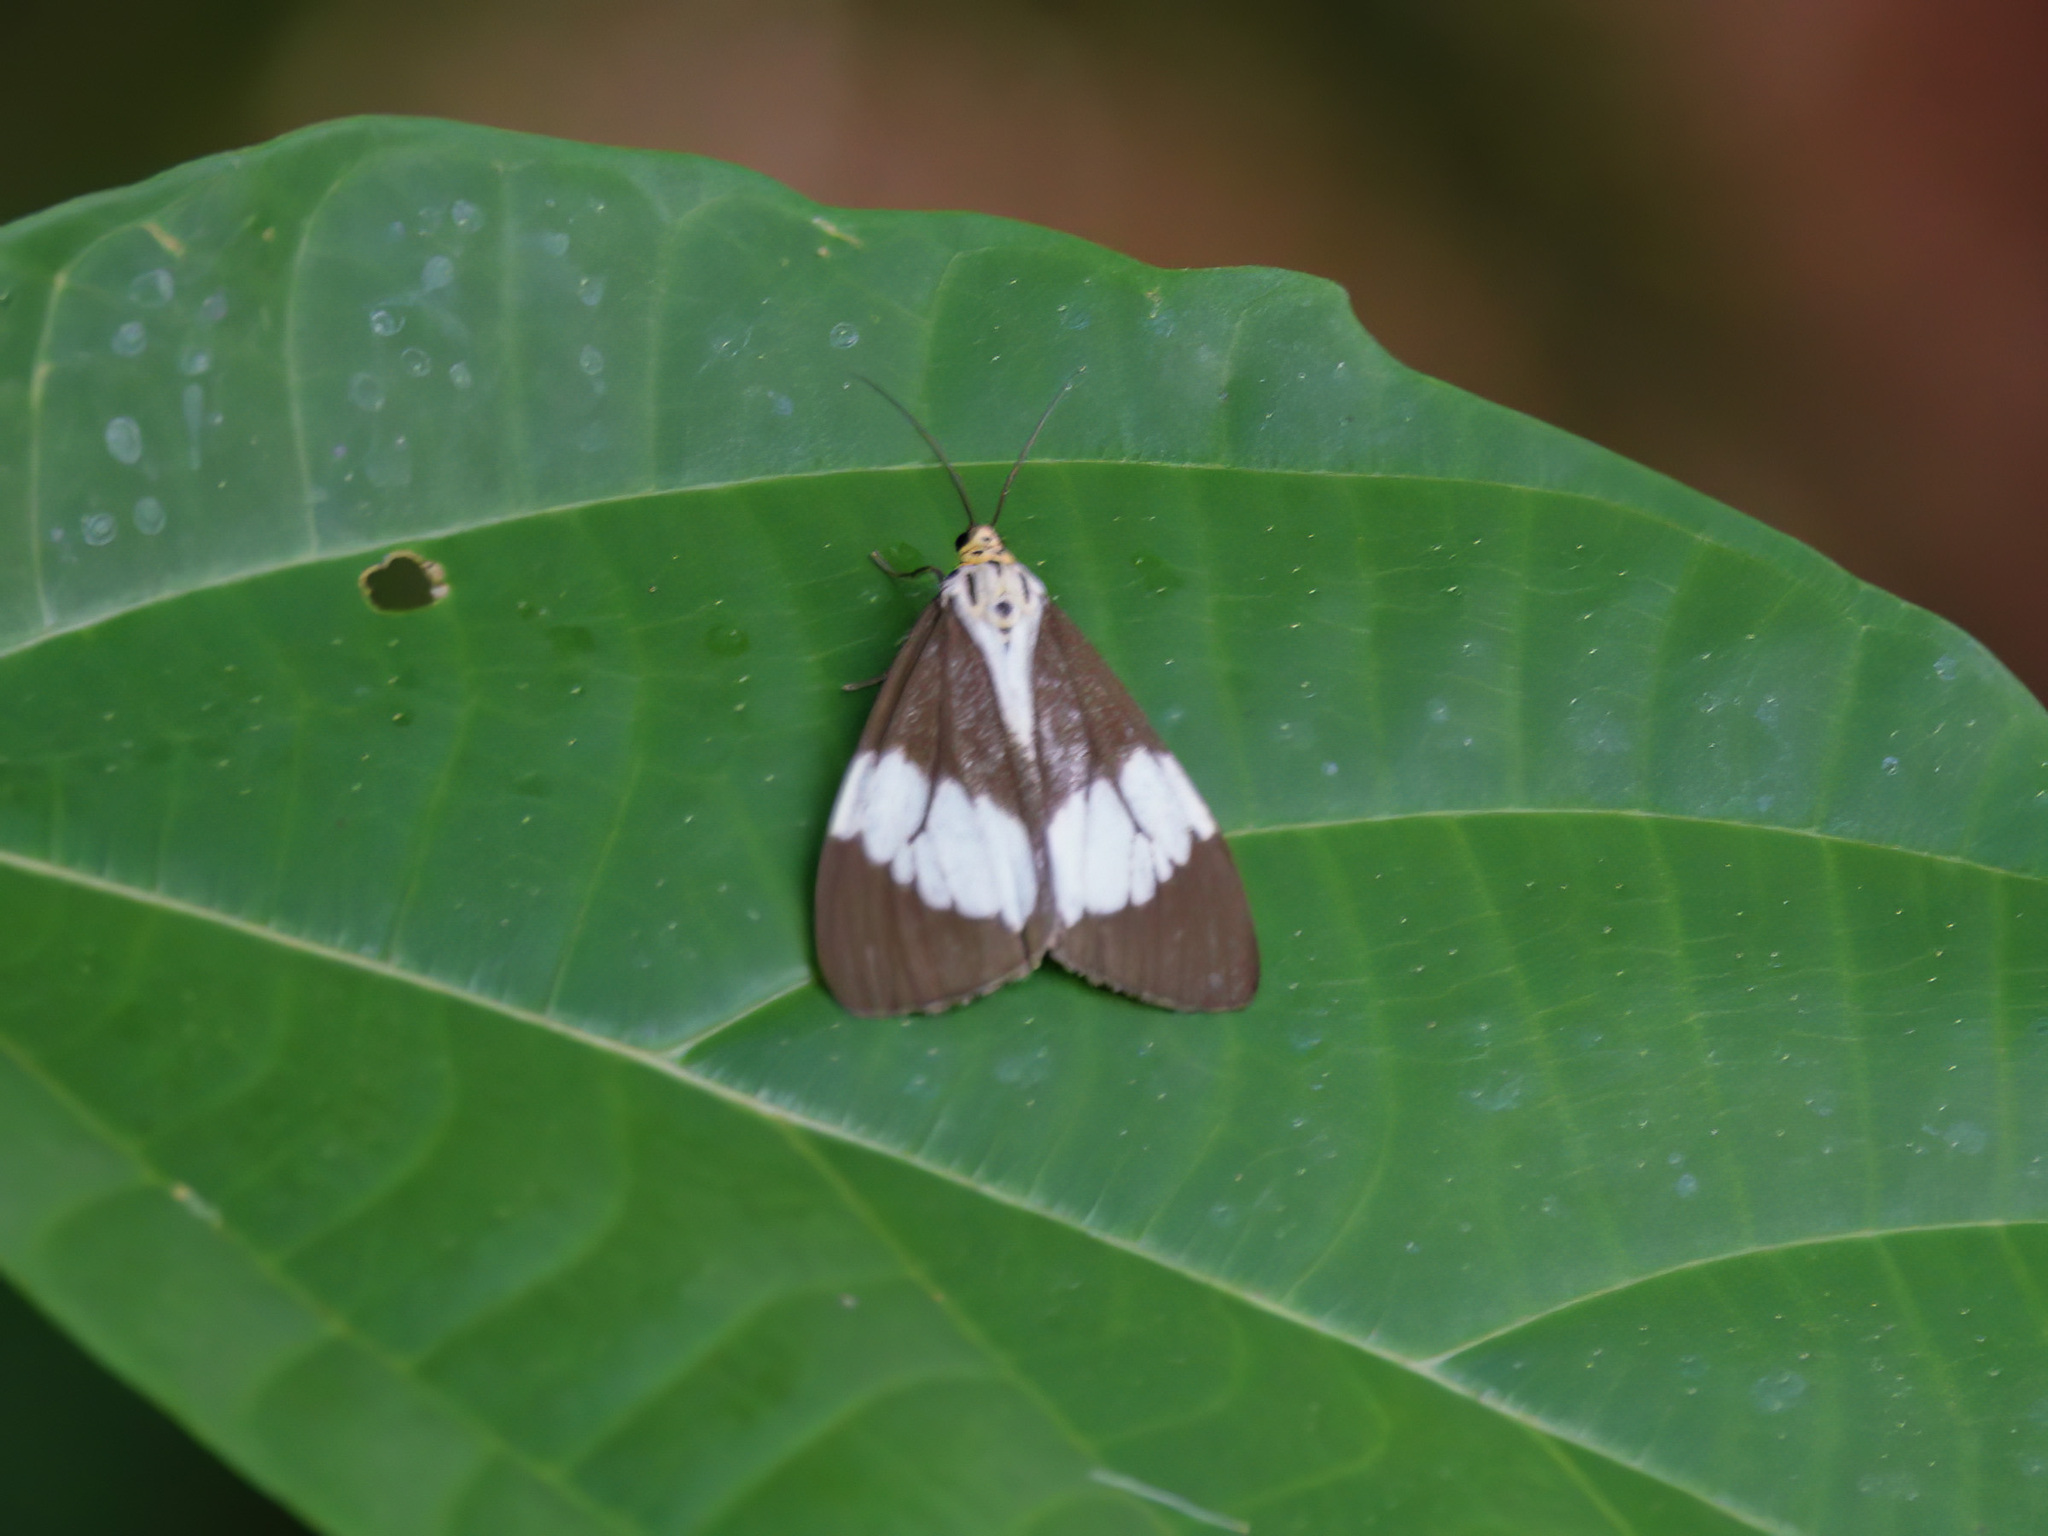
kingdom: Animalia
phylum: Arthropoda
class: Insecta
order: Lepidoptera
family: Erebidae
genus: Nyctemera
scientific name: Nyctemera lacticinia
